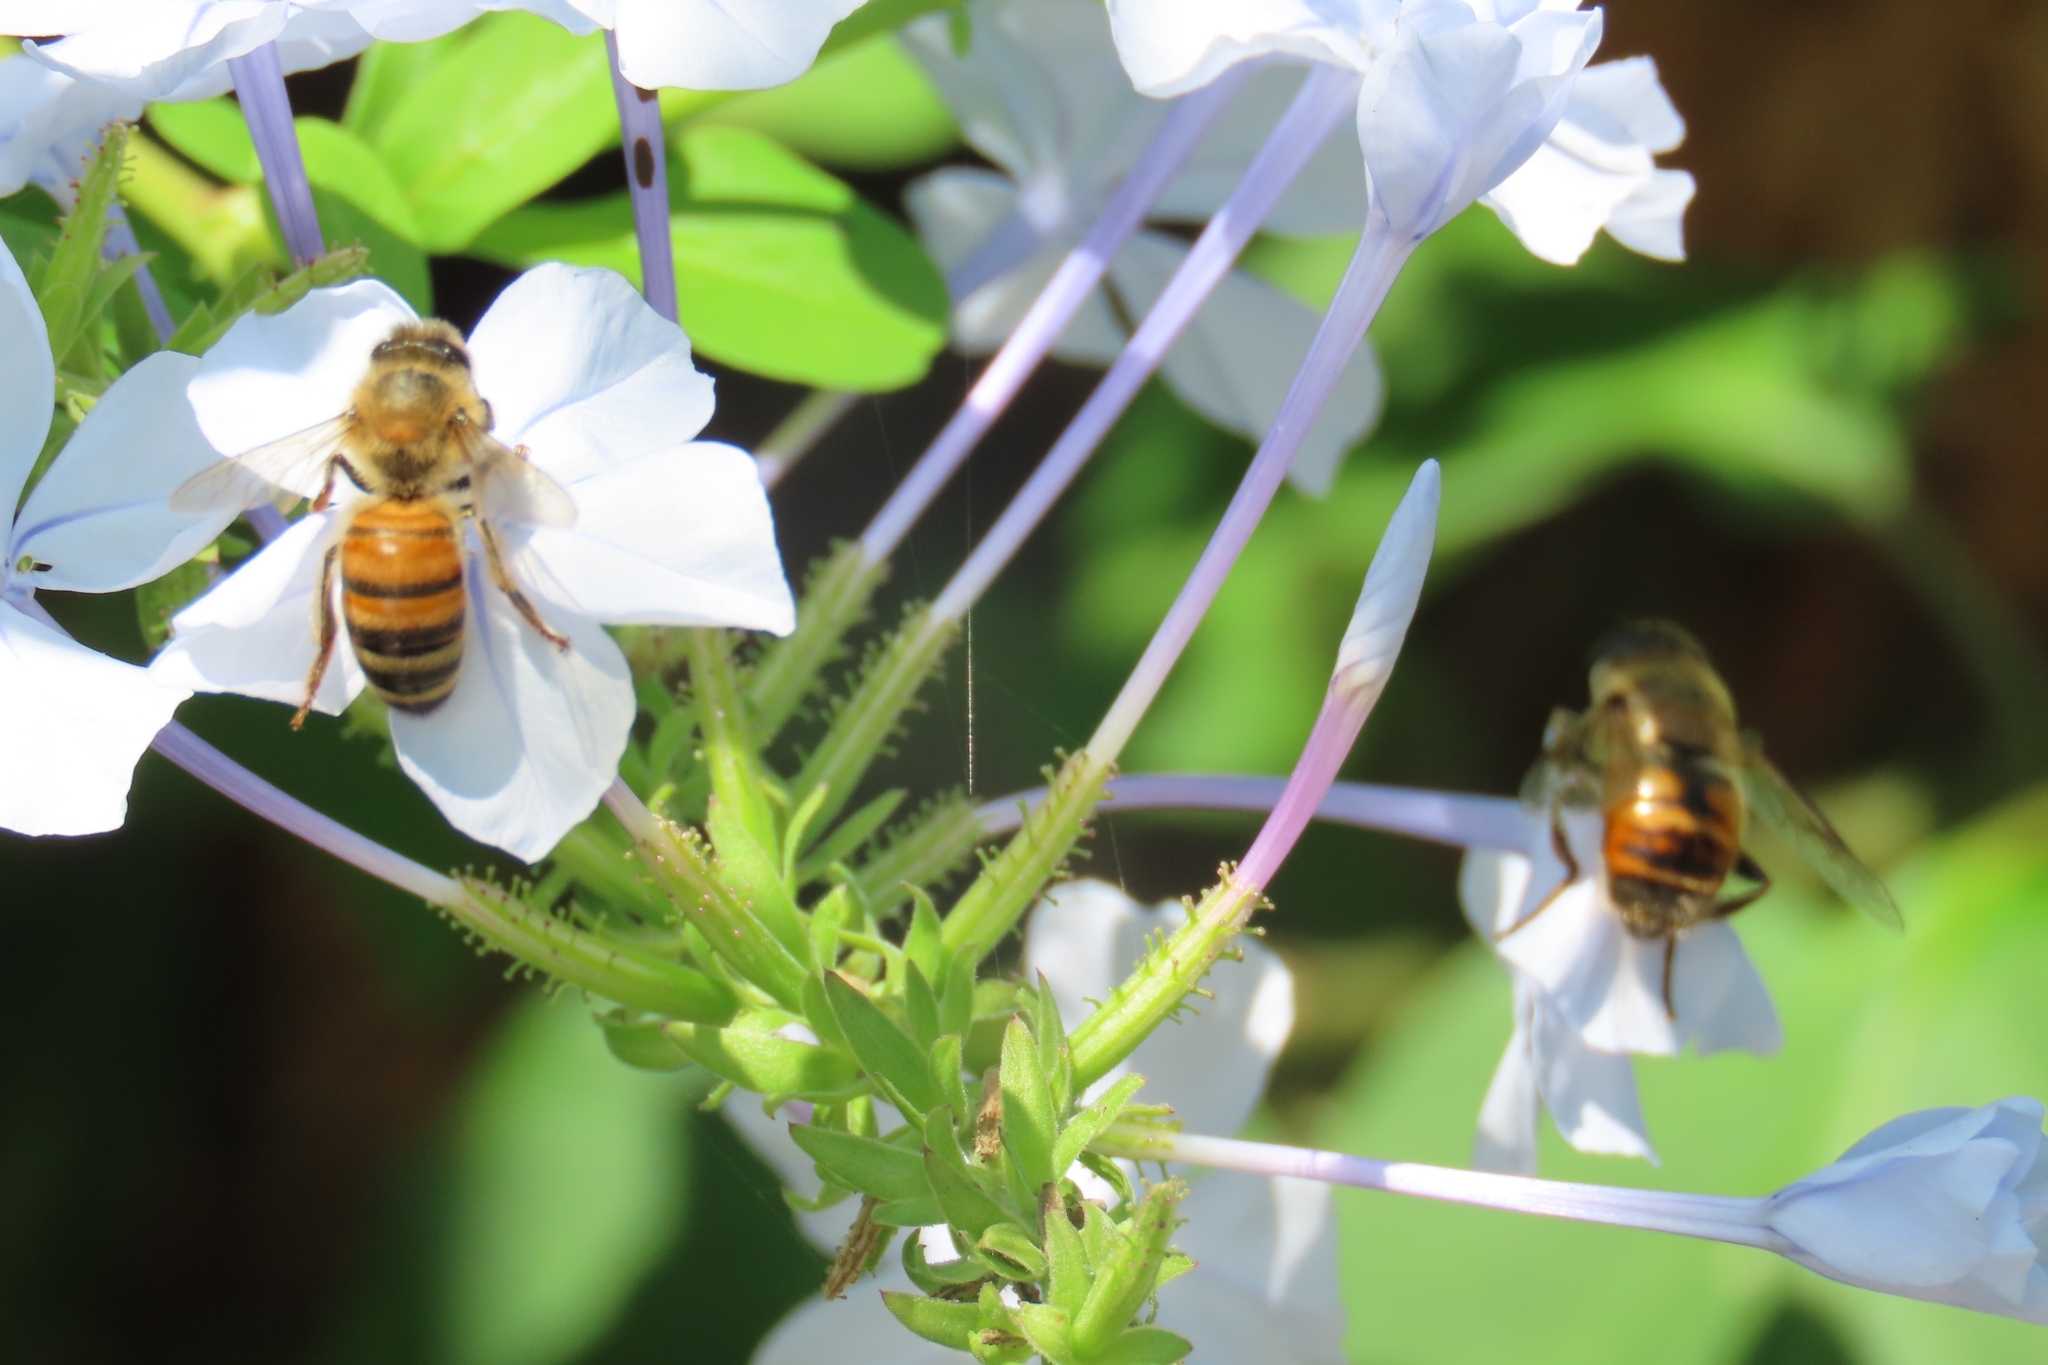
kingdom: Animalia
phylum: Arthropoda
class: Insecta
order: Hymenoptera
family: Apidae
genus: Apis
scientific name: Apis mellifera
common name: Honey bee
